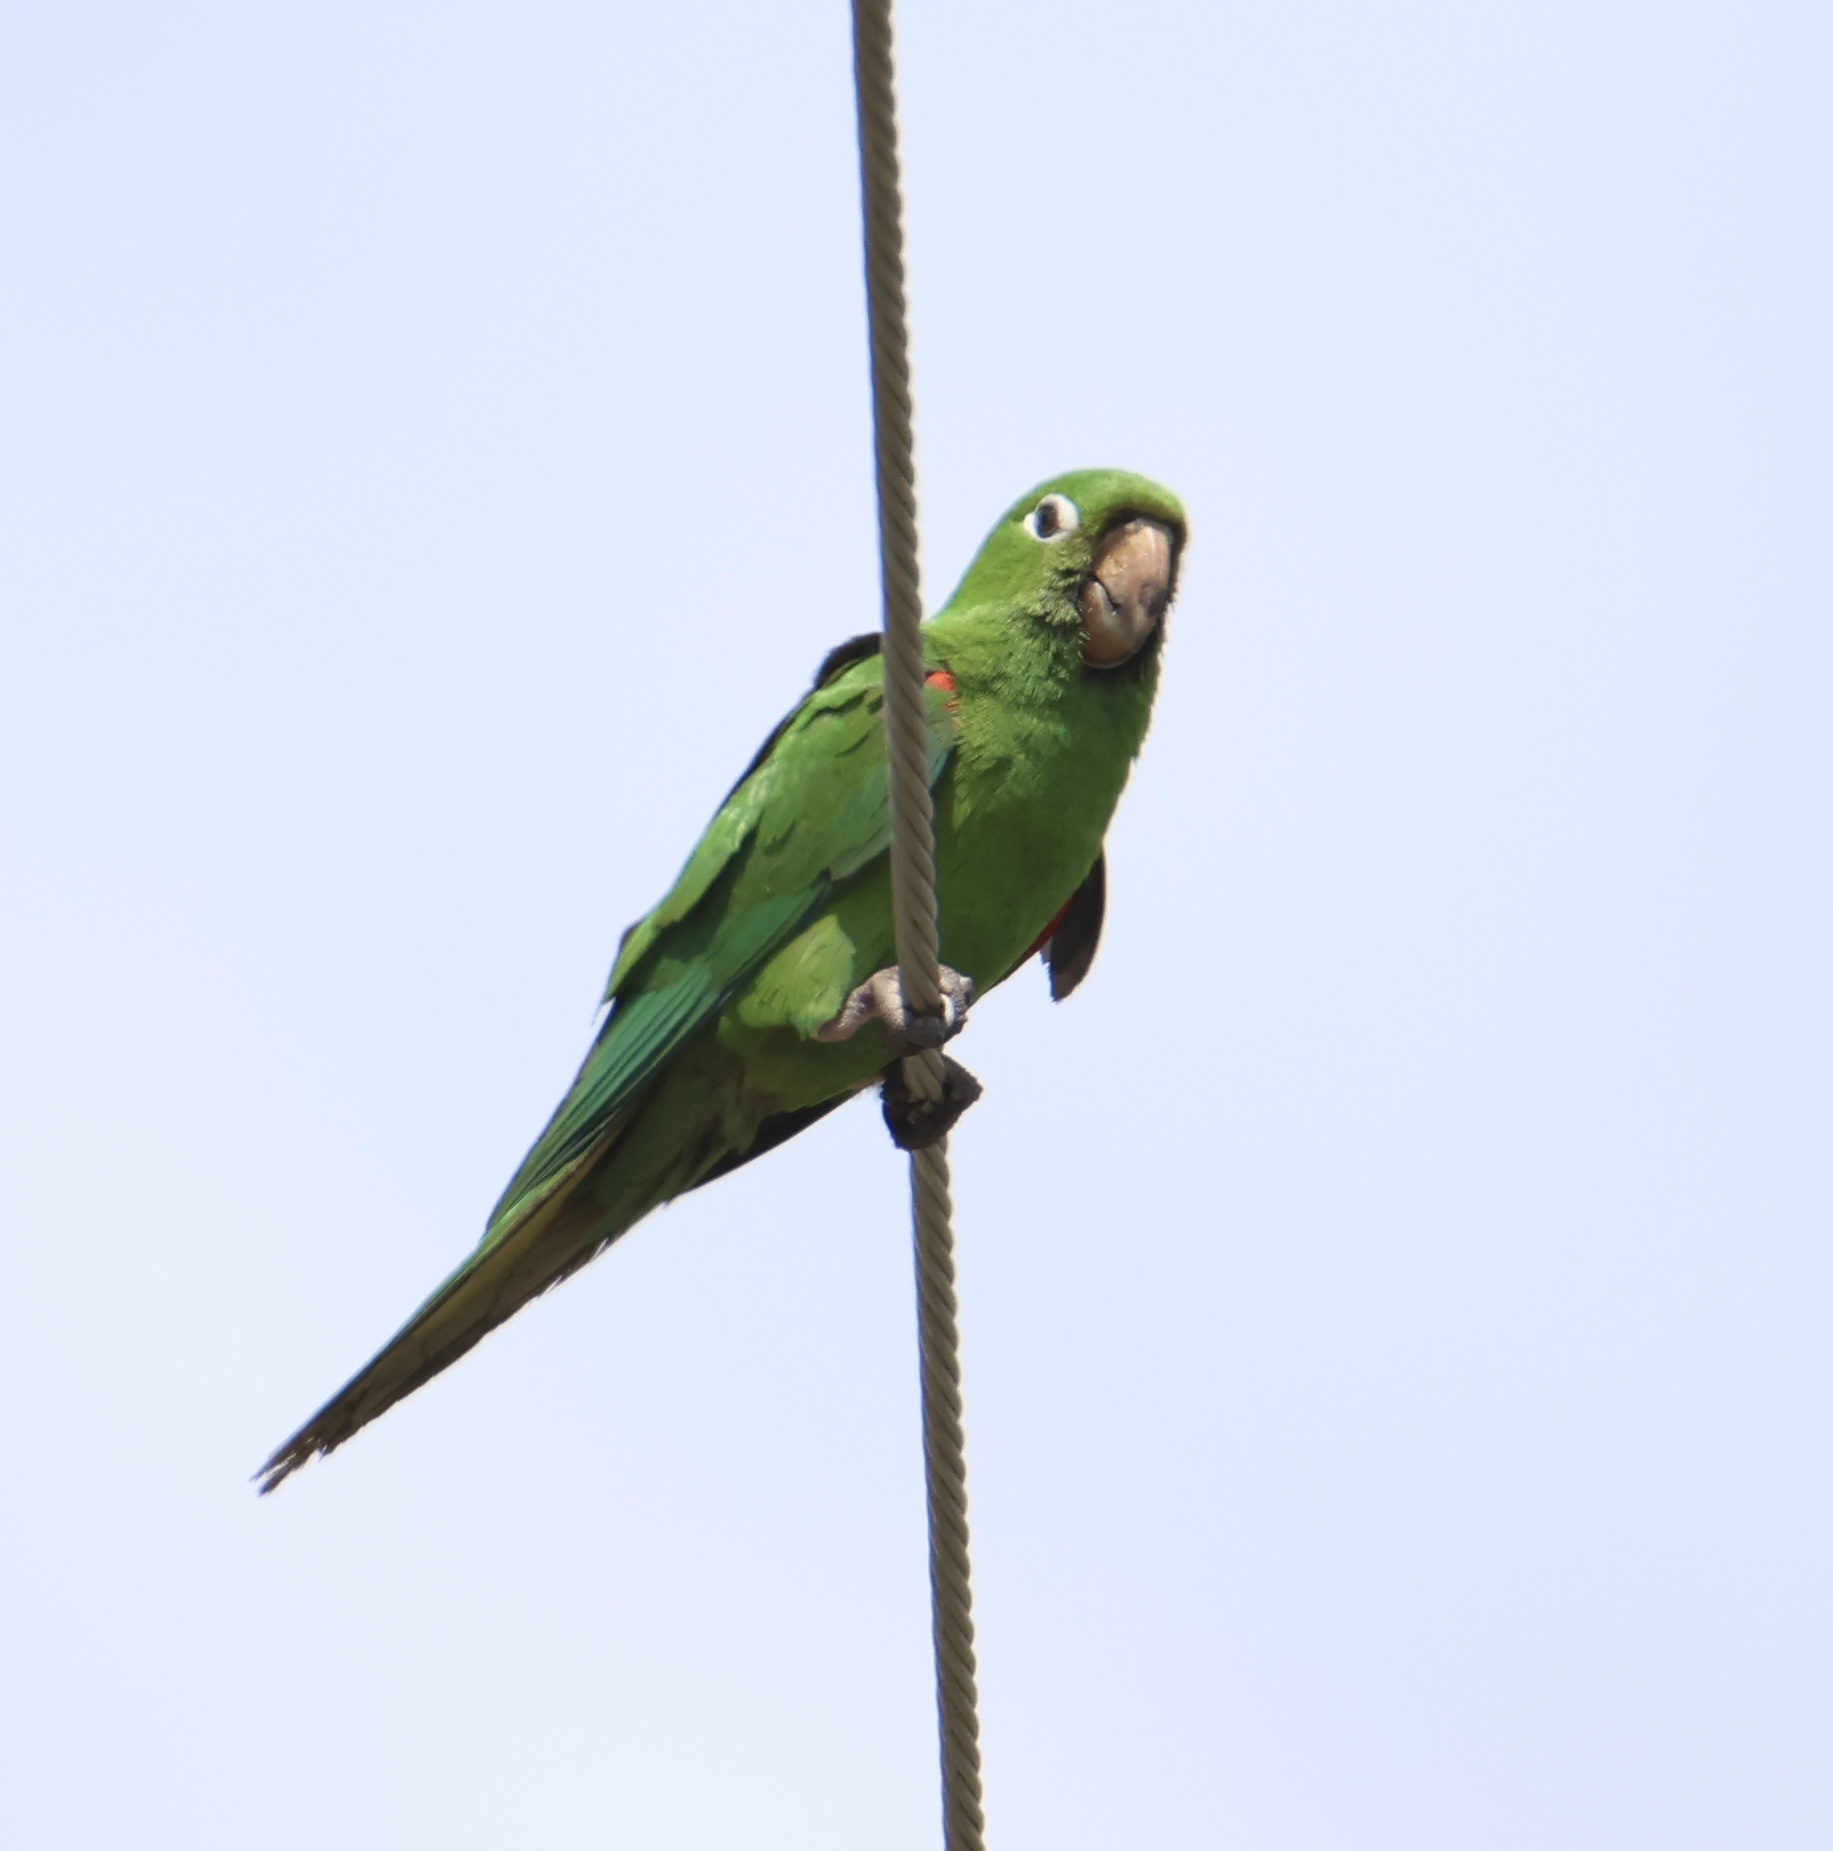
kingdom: Animalia
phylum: Chordata
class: Aves
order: Psittaciformes
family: Psittacidae
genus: Aratinga
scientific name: Aratinga chloroptera
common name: Hispaniolan parakeet
